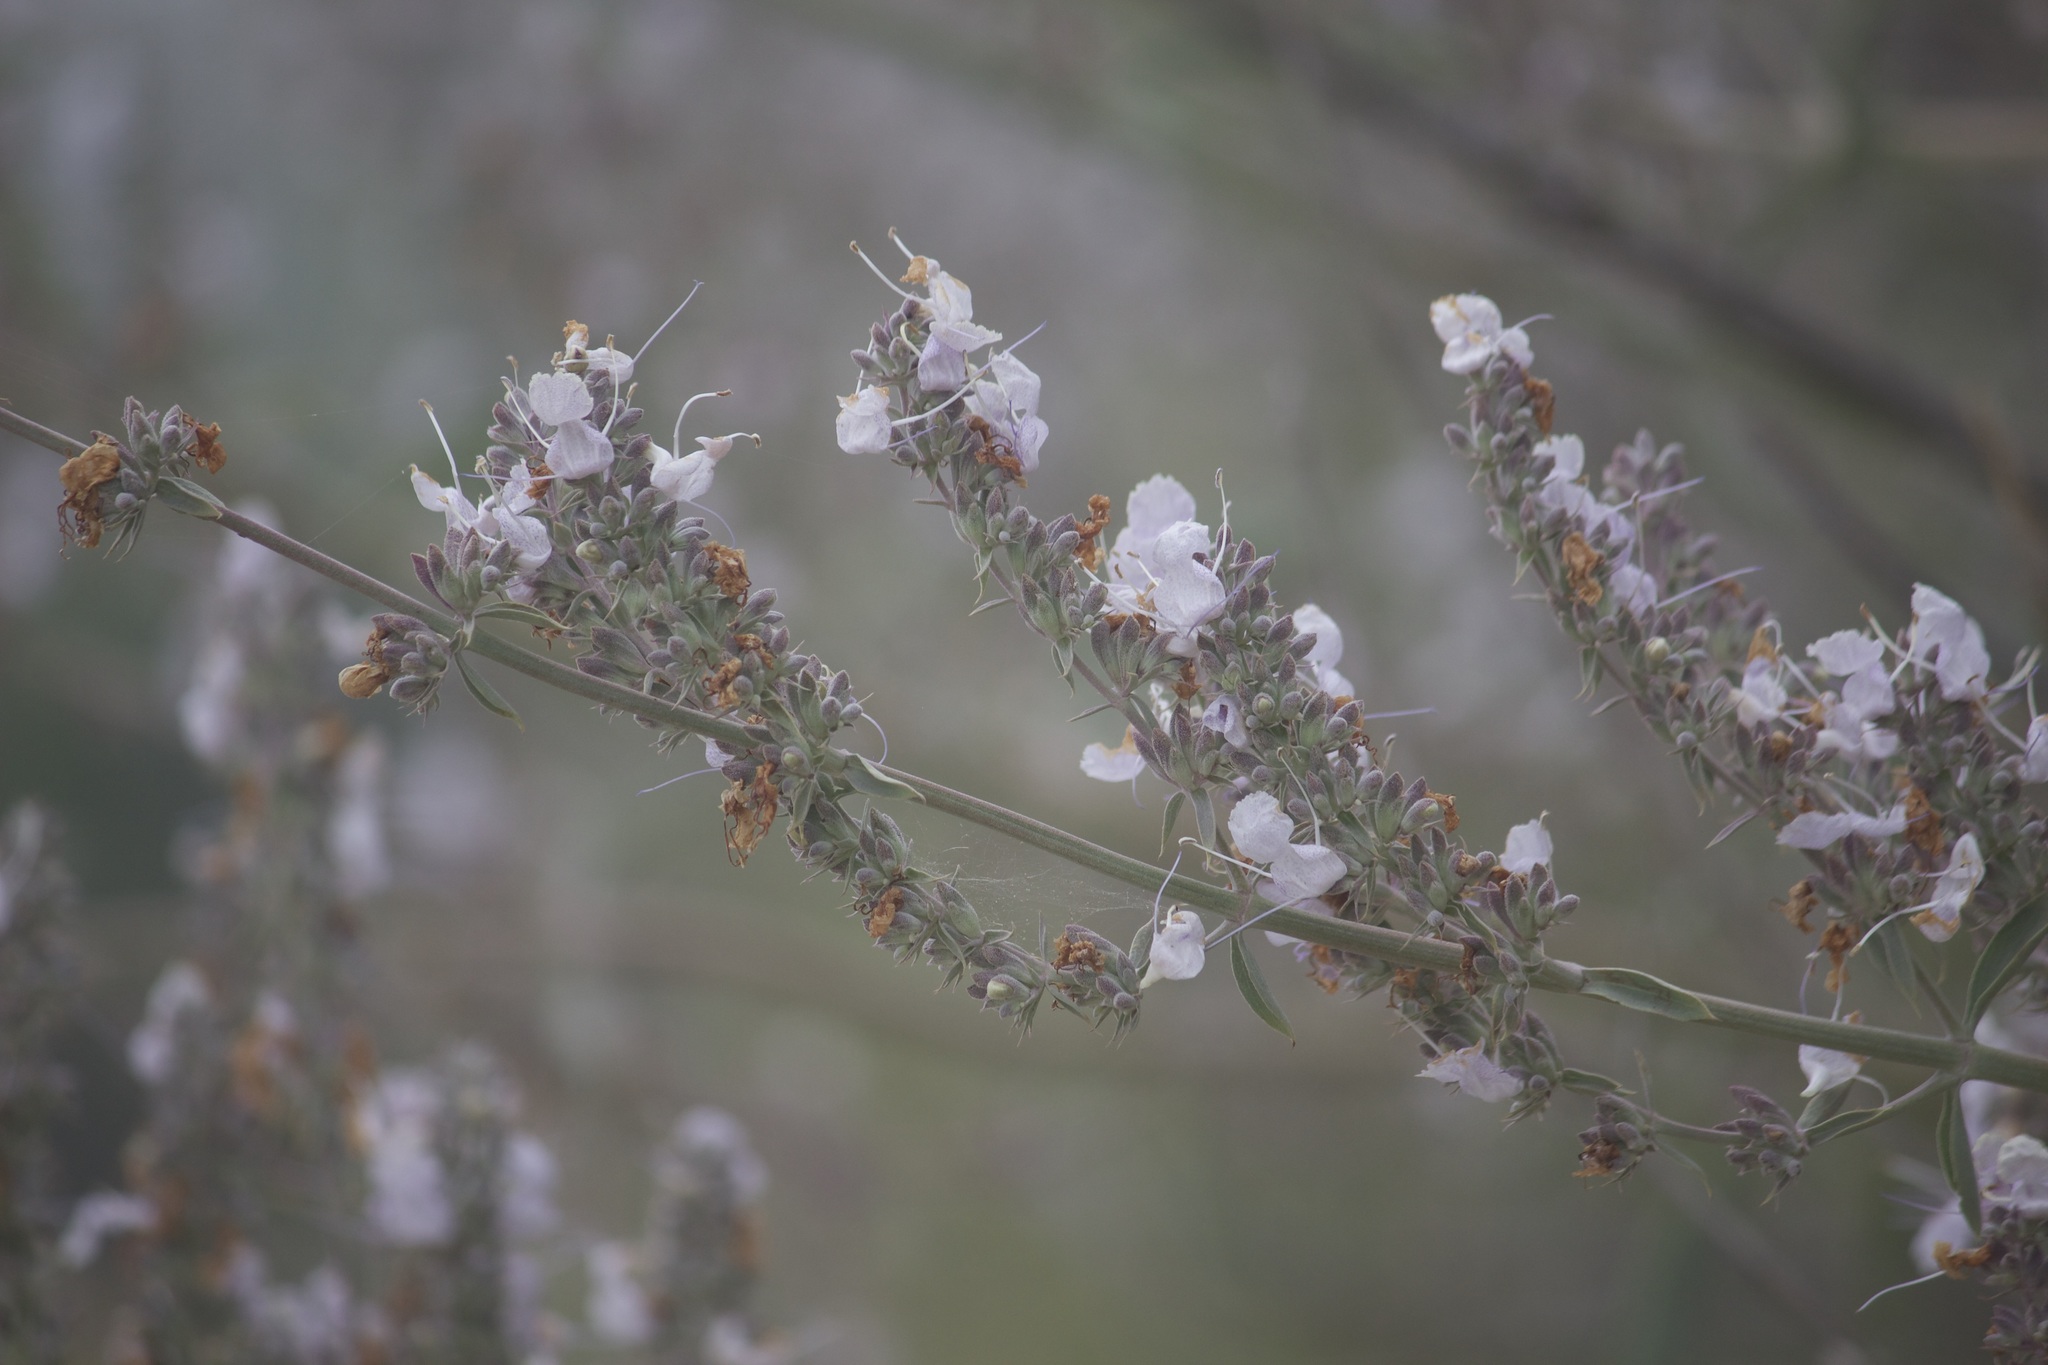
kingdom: Plantae
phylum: Tracheophyta
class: Magnoliopsida
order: Lamiales
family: Lamiaceae
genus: Salvia
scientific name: Salvia apiana
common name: White sage
